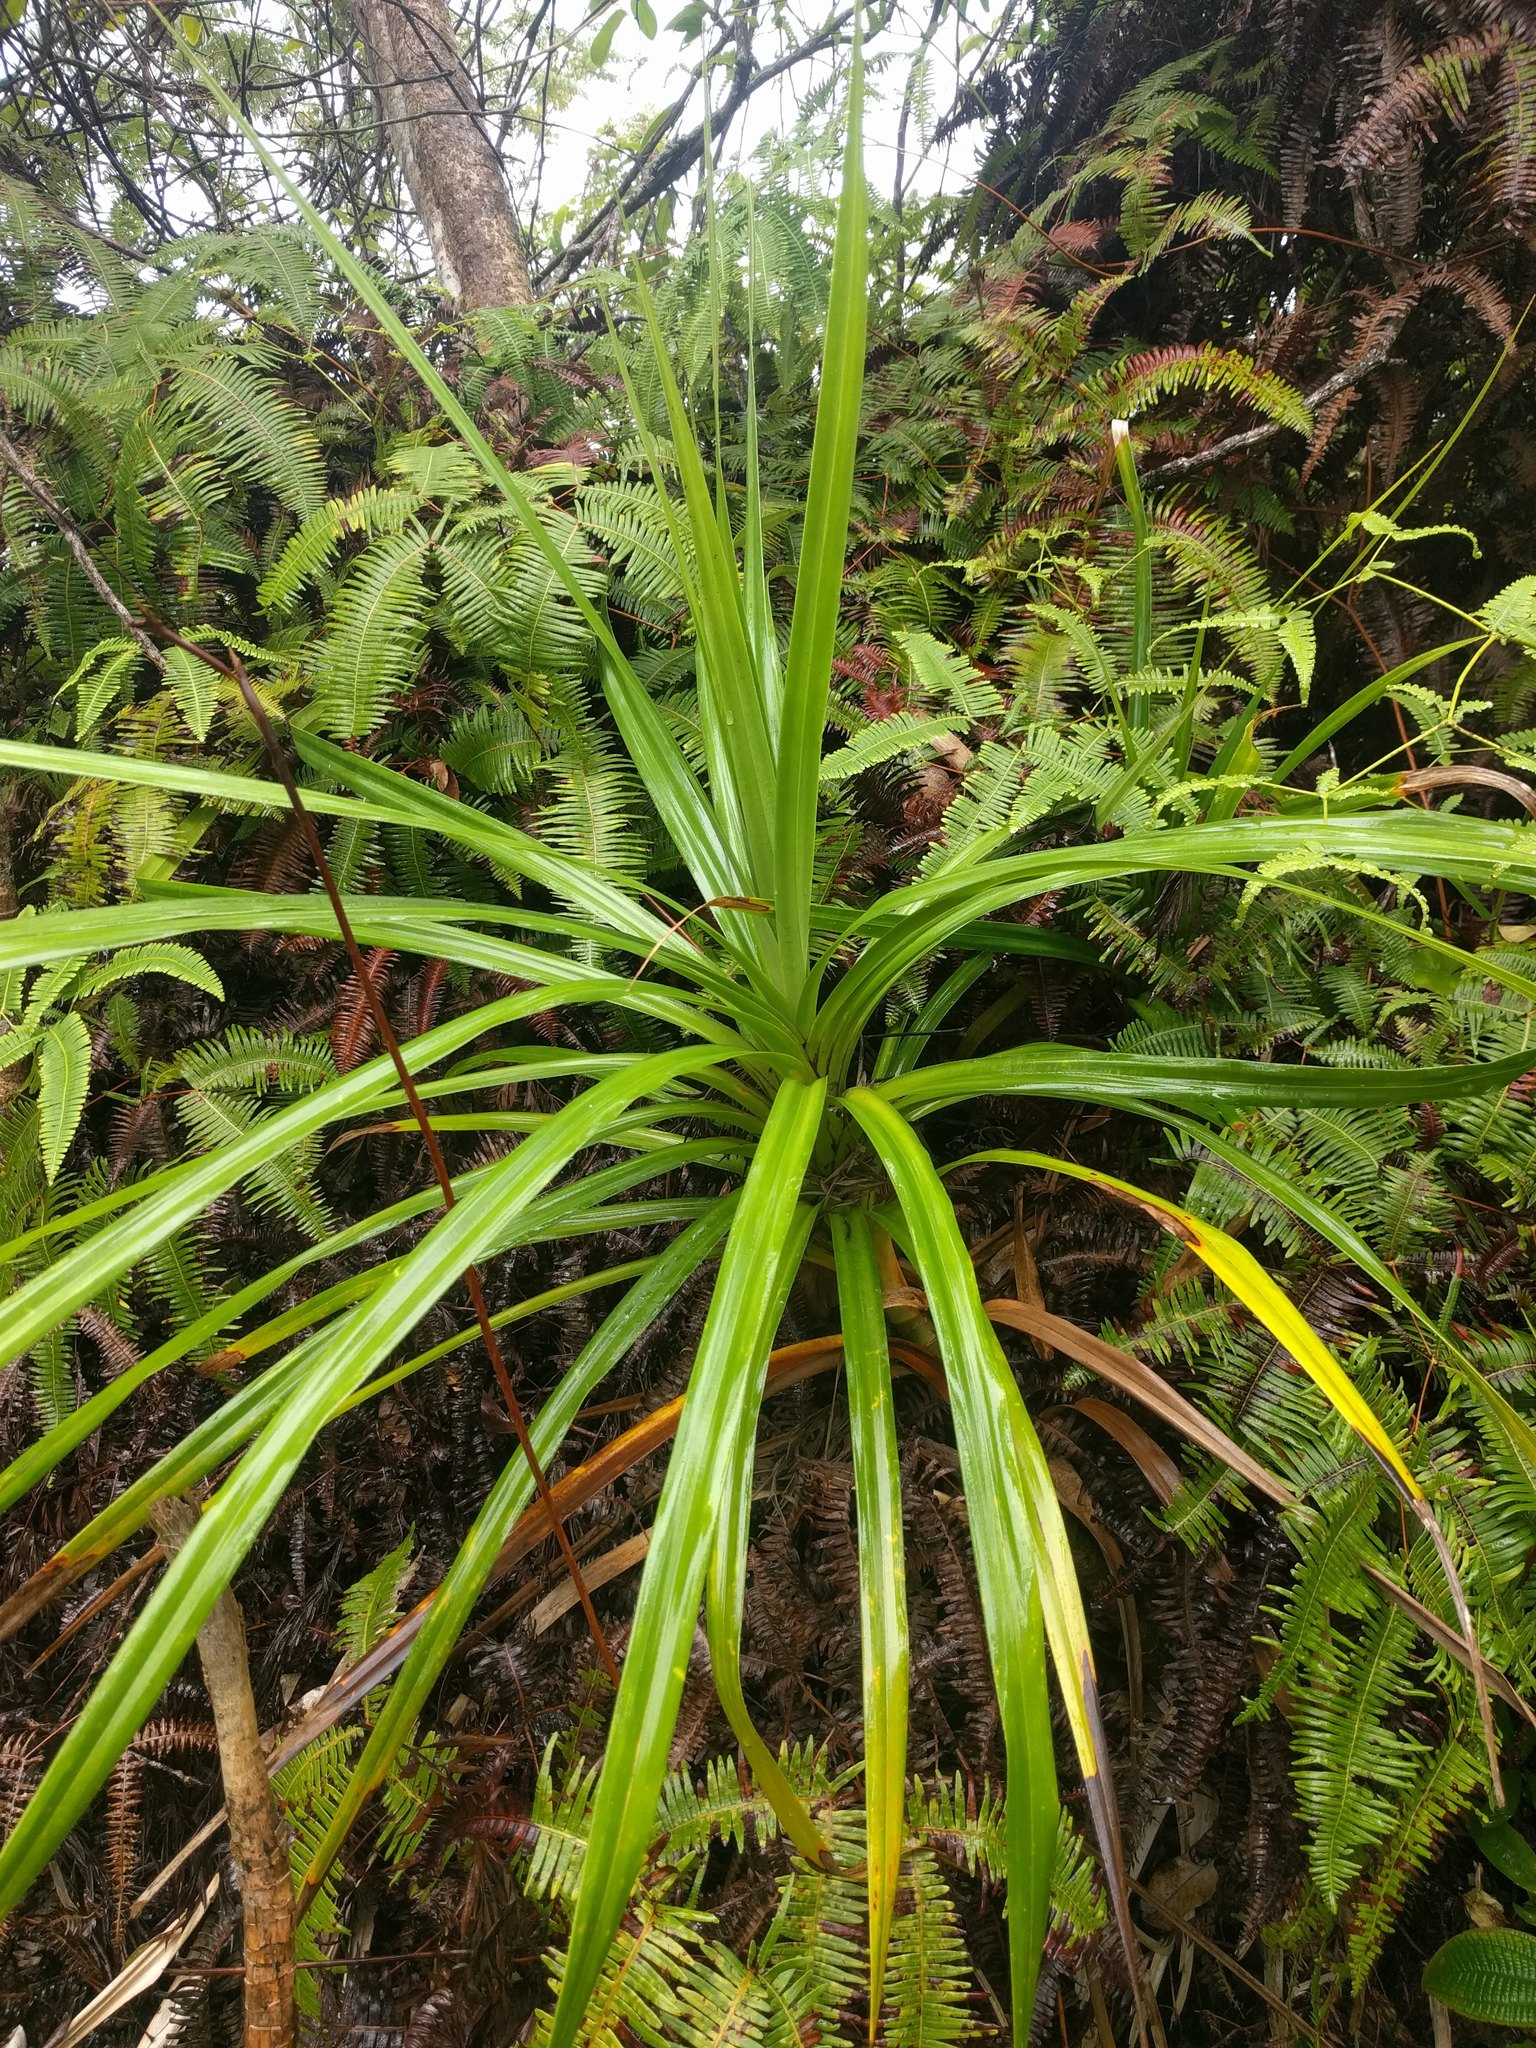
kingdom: Plantae
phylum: Tracheophyta
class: Liliopsida
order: Pandanales
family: Pandanaceae
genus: Freycinetia
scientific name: Freycinetia arborea
